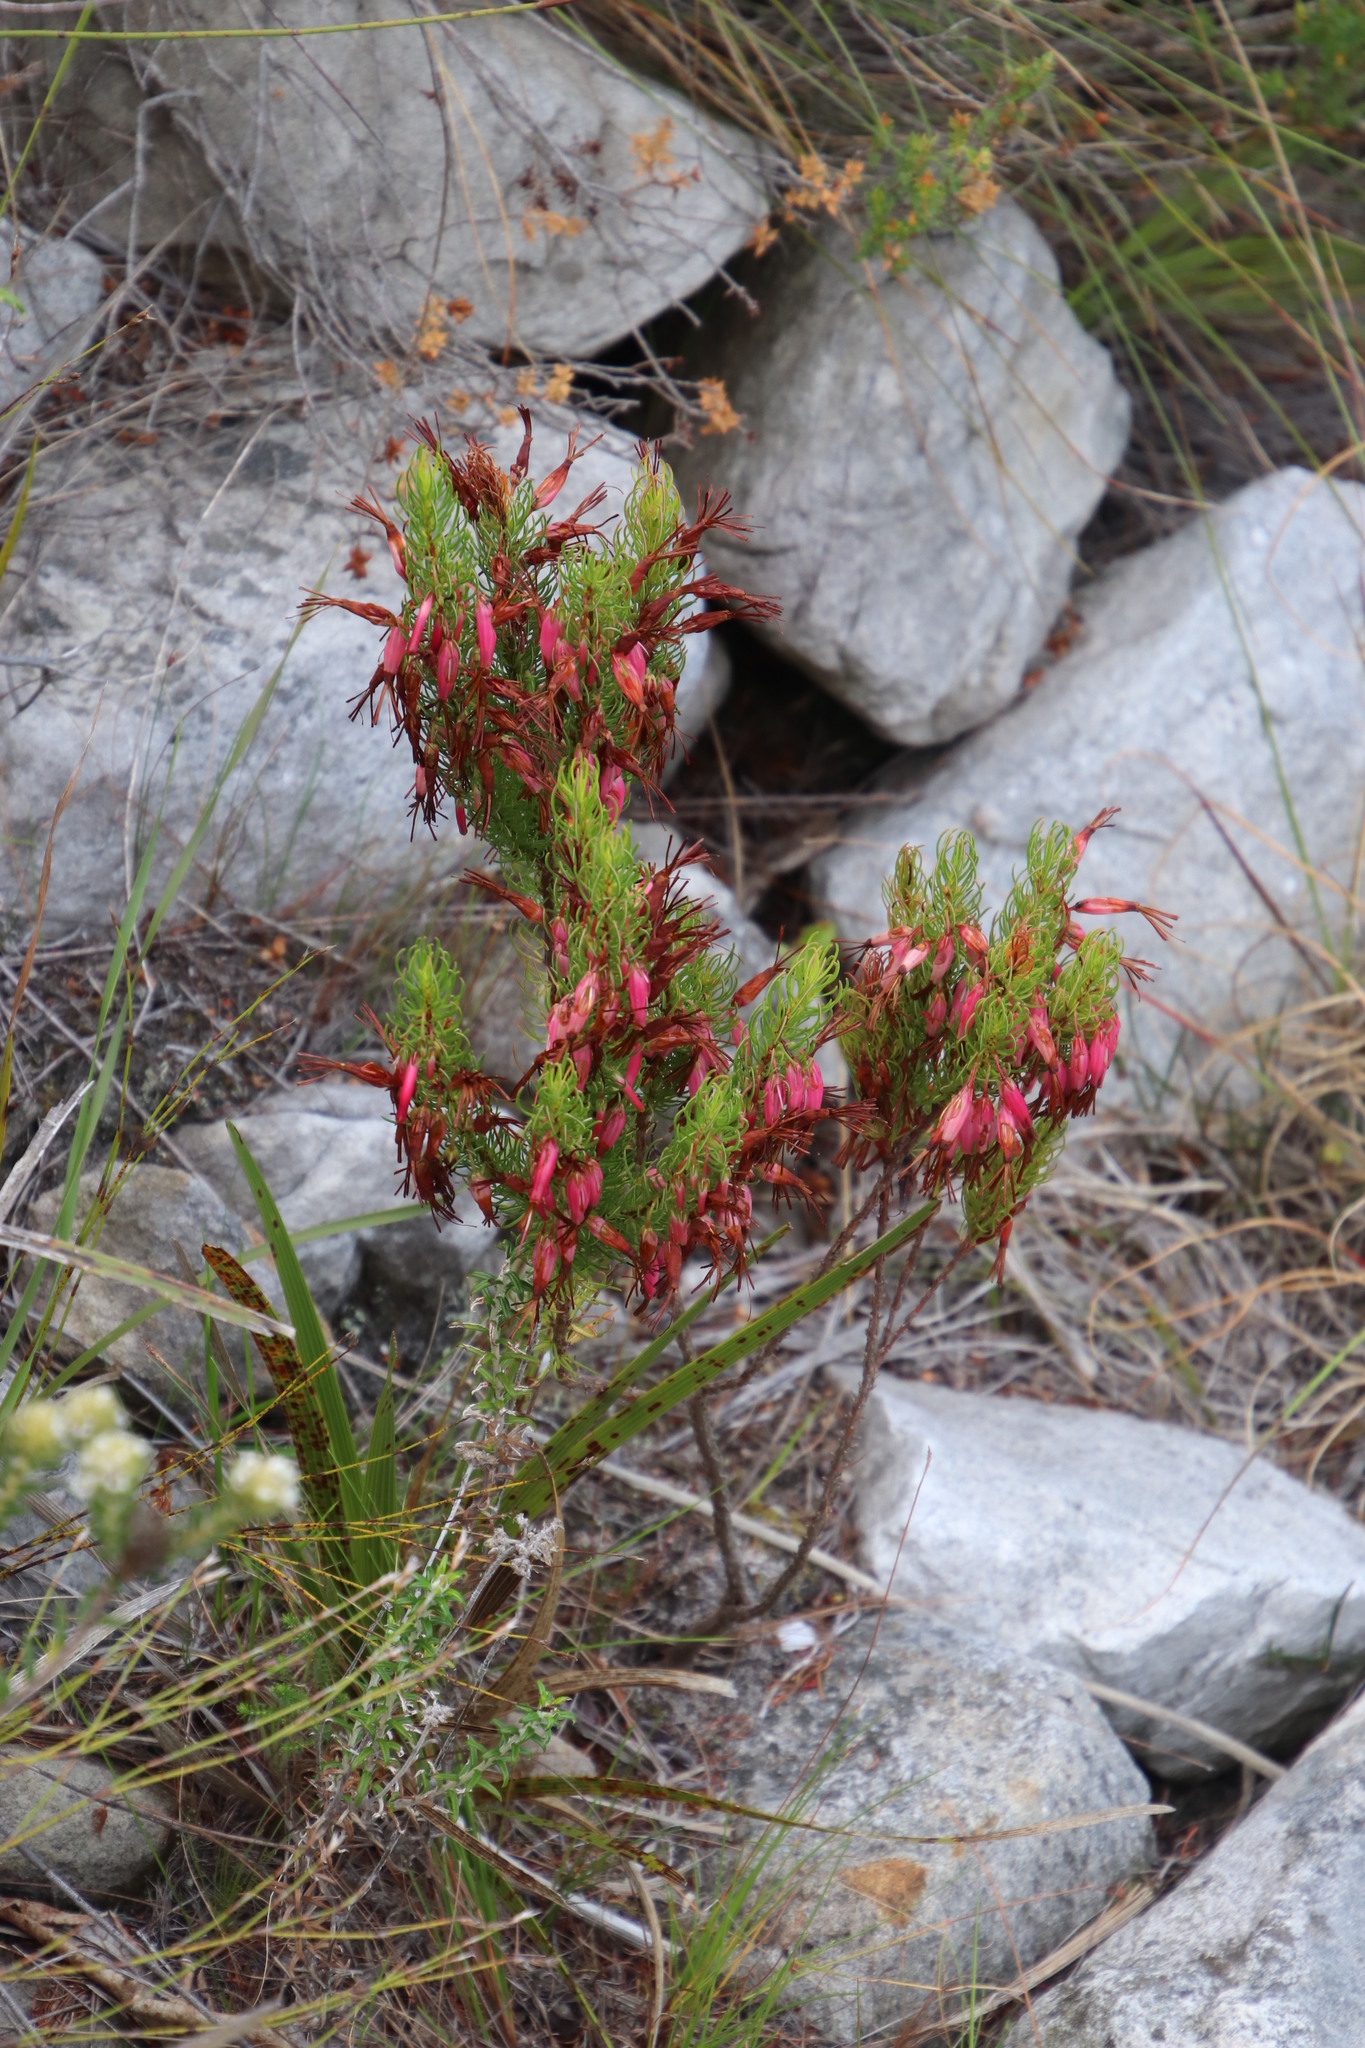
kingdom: Plantae
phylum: Tracheophyta
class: Magnoliopsida
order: Ericales
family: Ericaceae
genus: Erica
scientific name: Erica plukenetii
